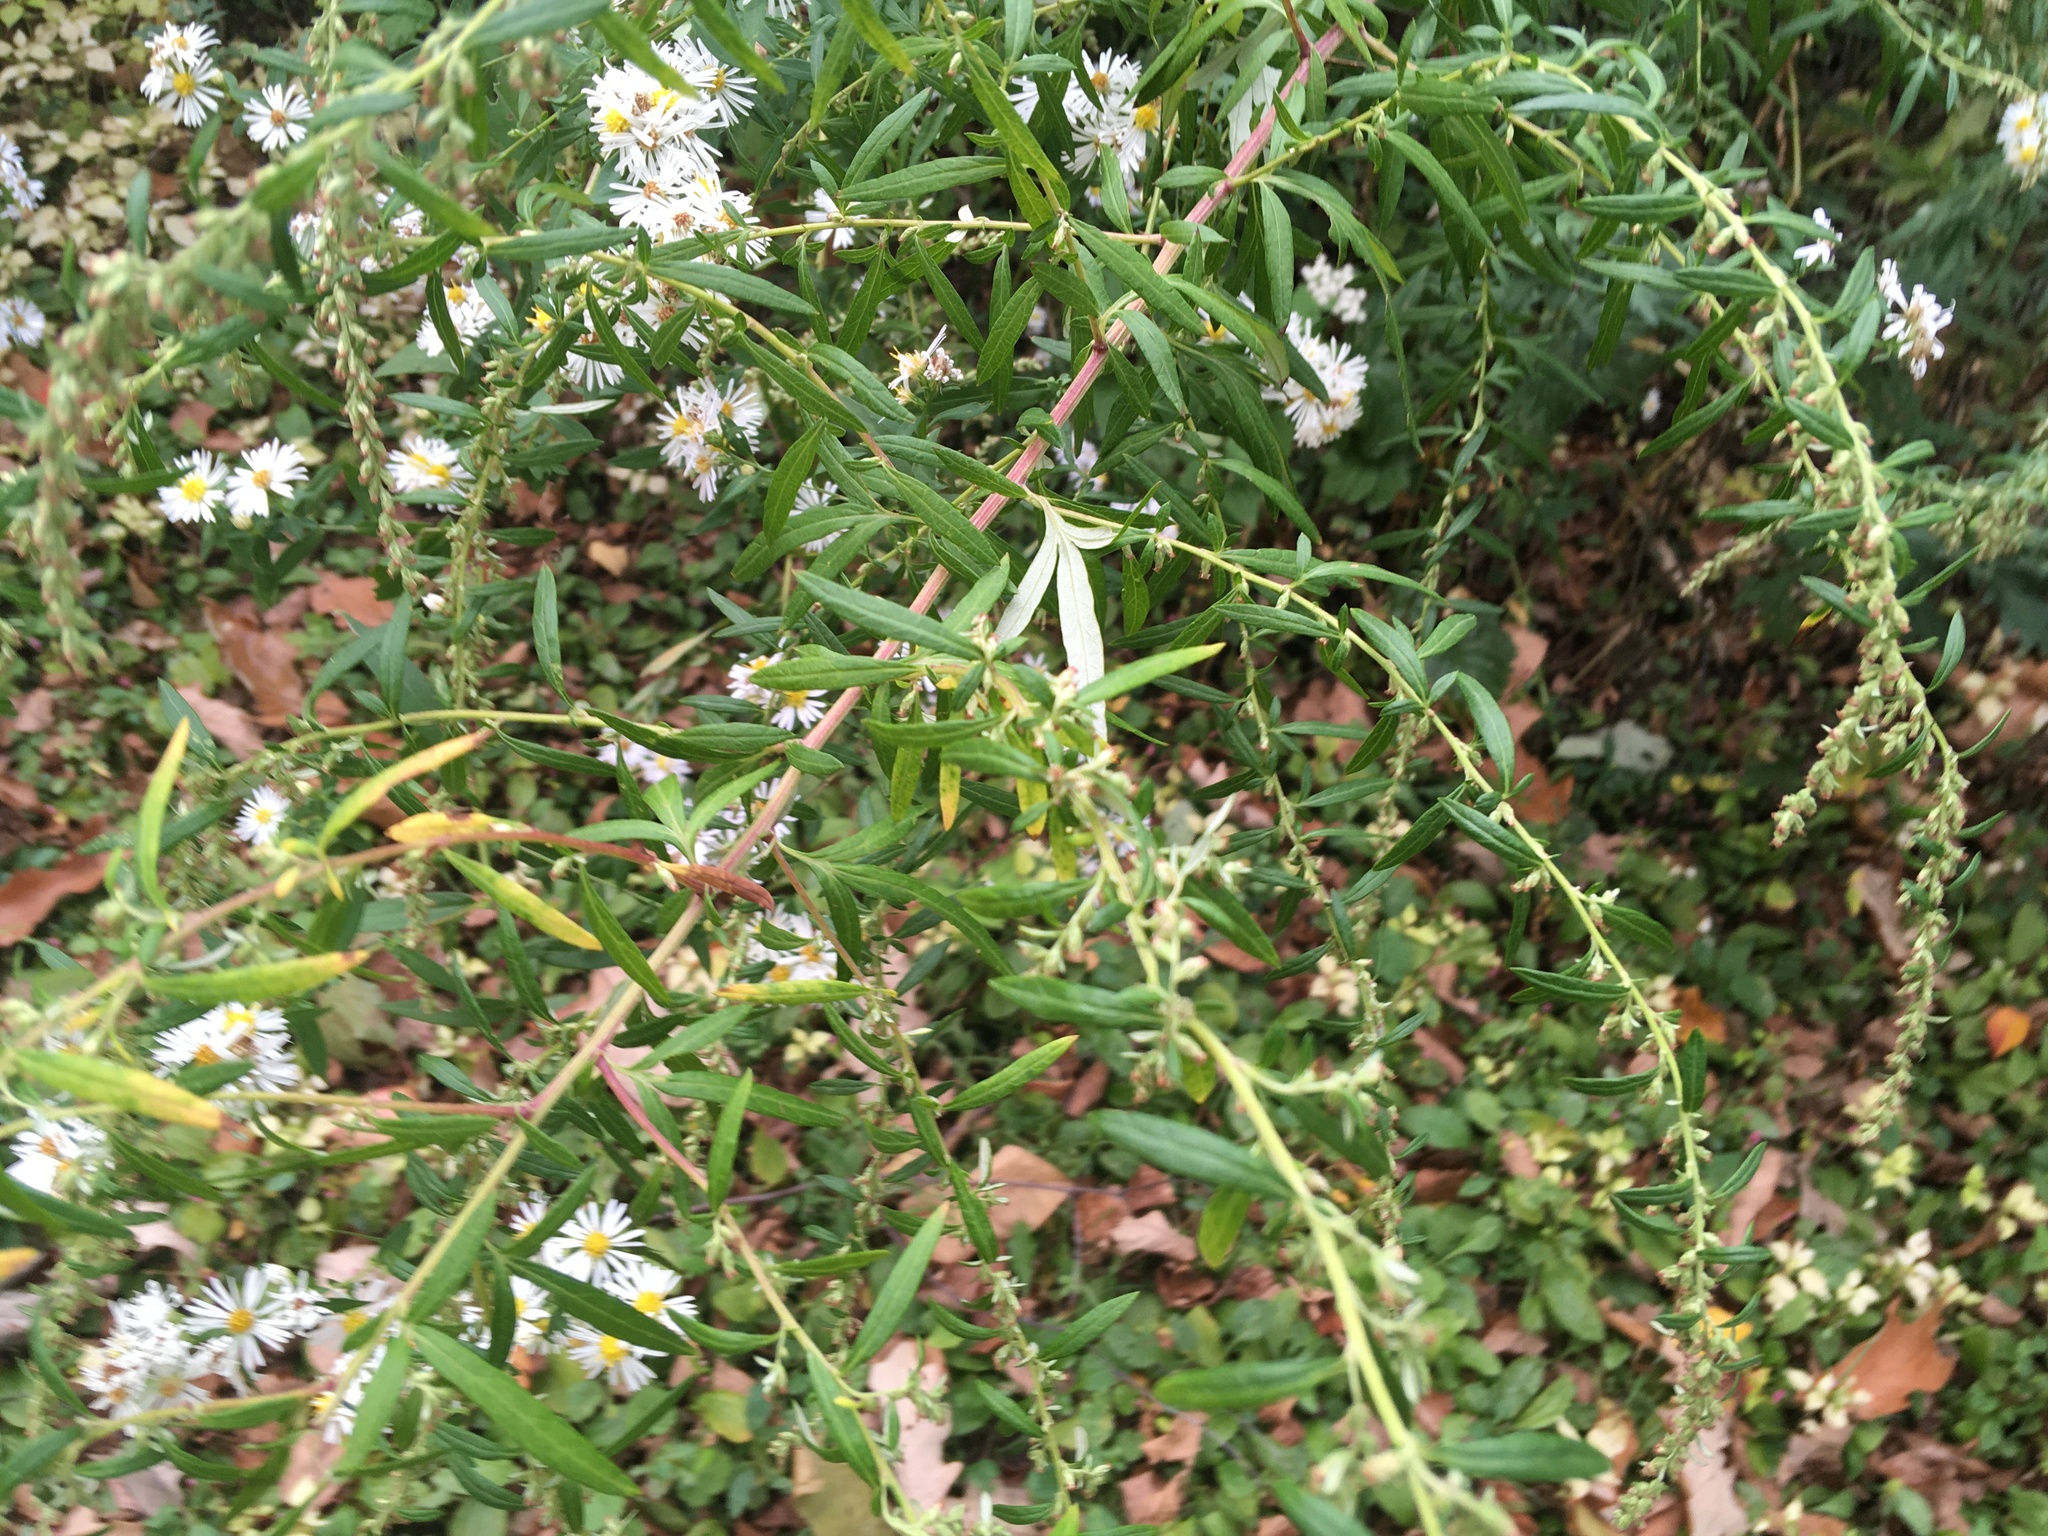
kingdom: Plantae
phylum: Tracheophyta
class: Magnoliopsida
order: Asterales
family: Asteraceae
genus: Artemisia
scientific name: Artemisia vulgaris
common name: Mugwort
